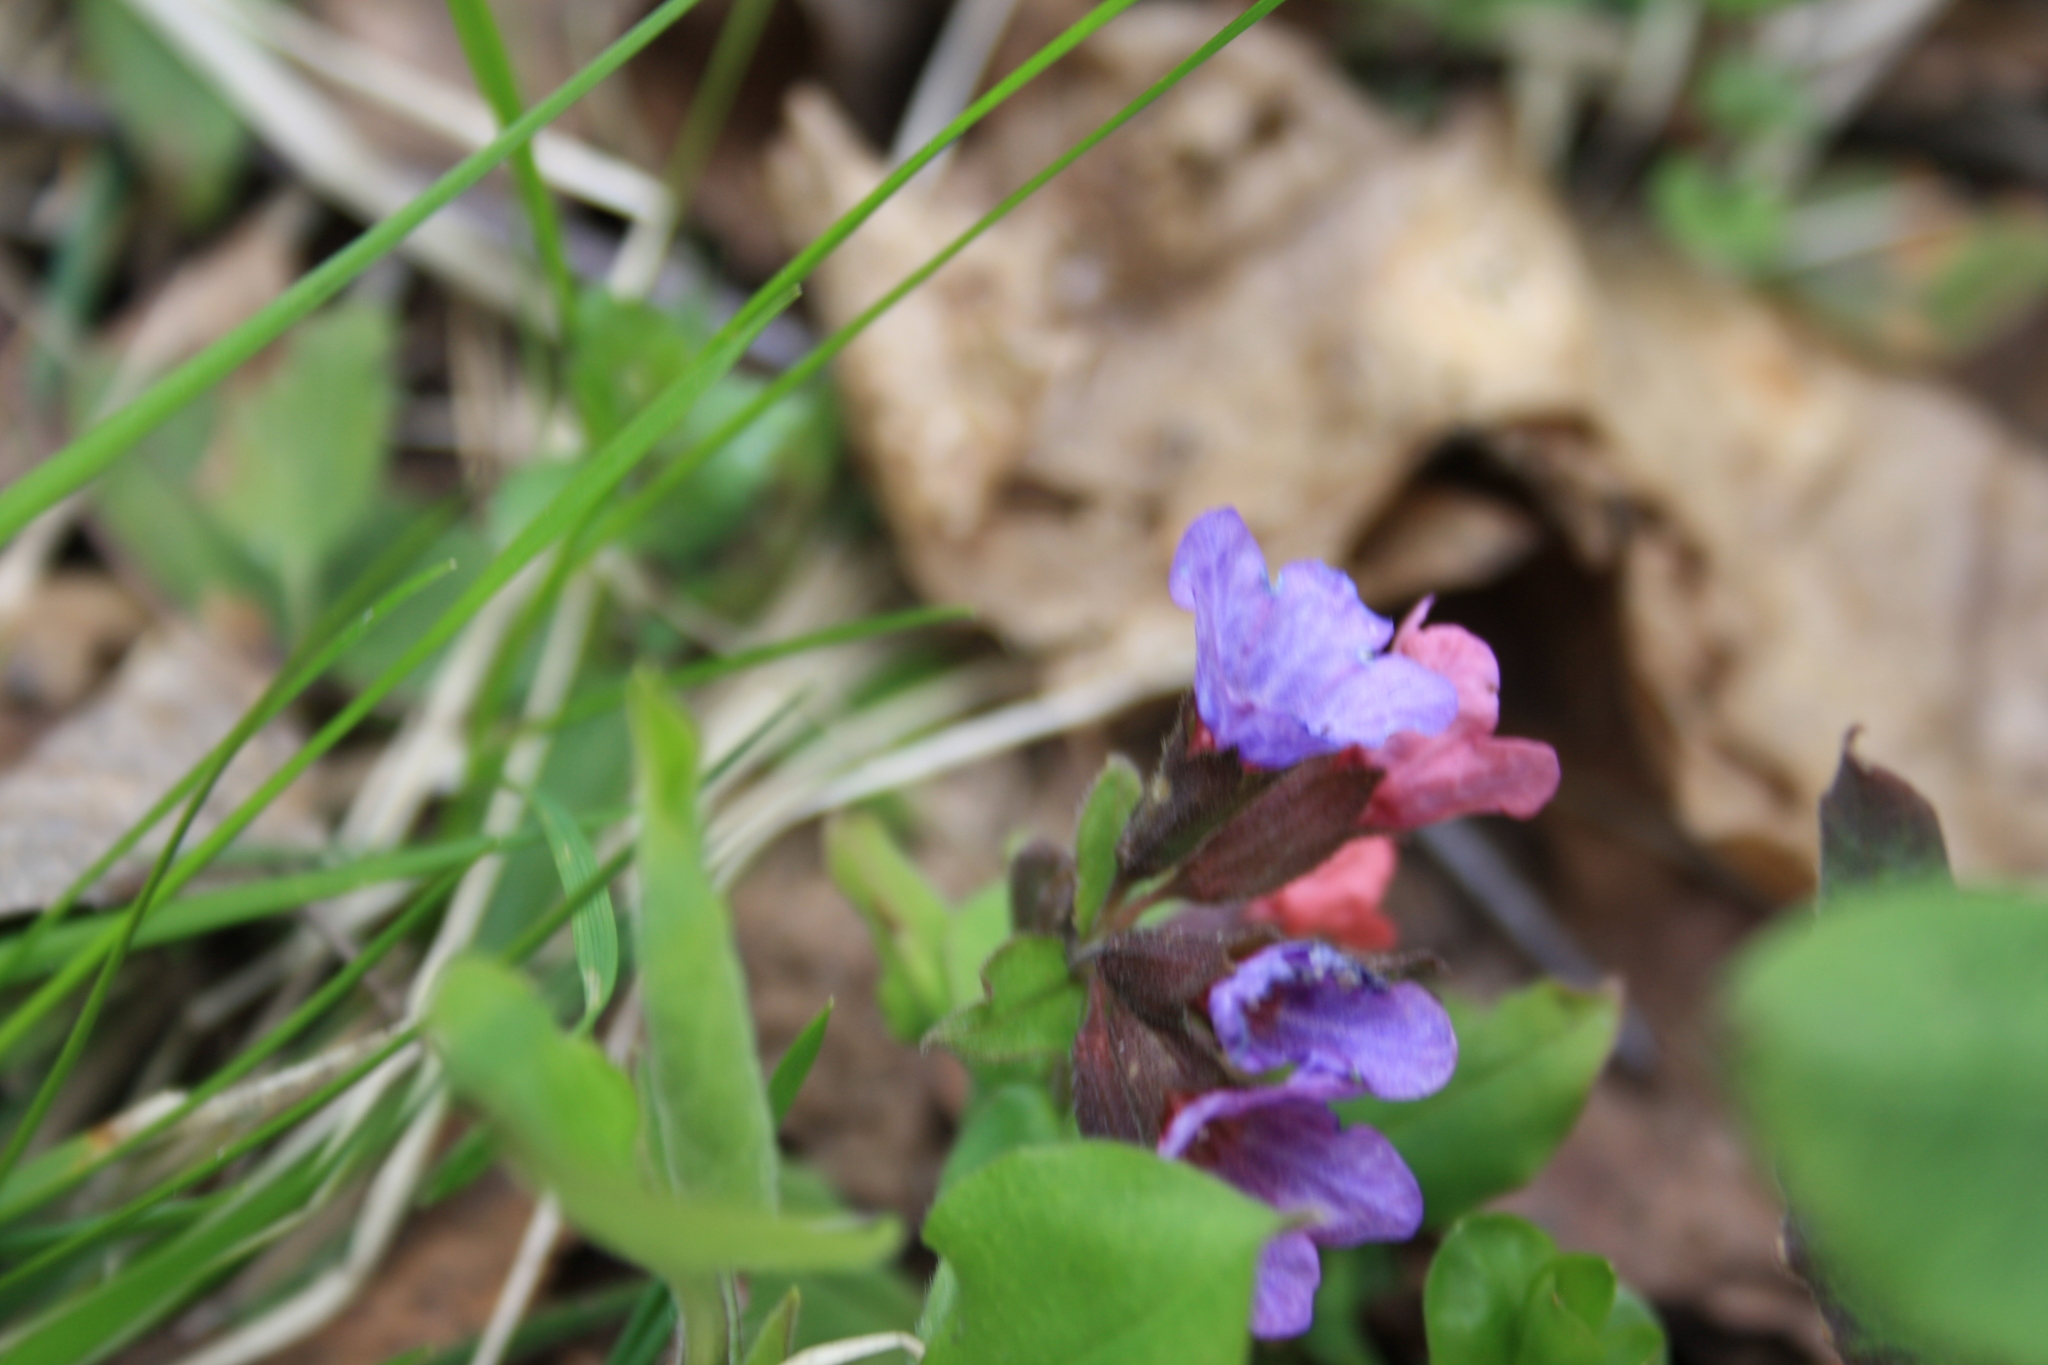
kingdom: Plantae
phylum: Tracheophyta
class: Magnoliopsida
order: Boraginales
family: Boraginaceae
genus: Pulmonaria
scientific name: Pulmonaria obscura
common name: Suffolk lungwort
